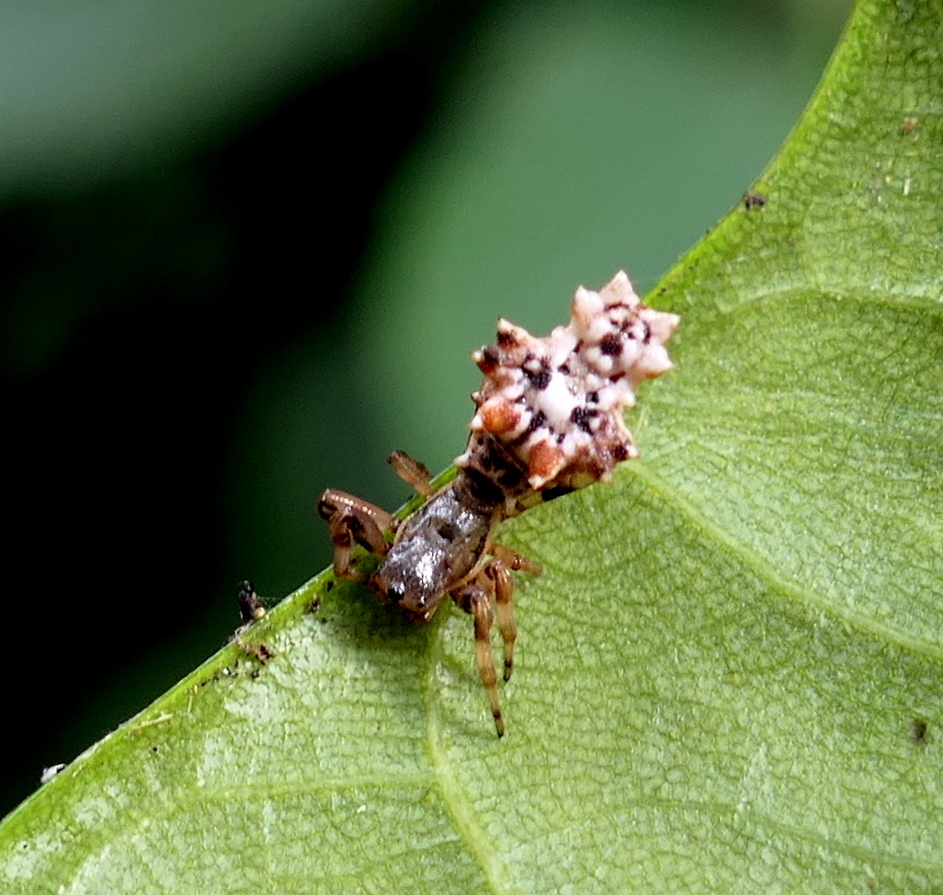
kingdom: Animalia
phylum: Arthropoda
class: Arachnida
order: Araneae
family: Araneidae
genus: Micrathena
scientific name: Micrathena horrida
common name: Orb weavers
